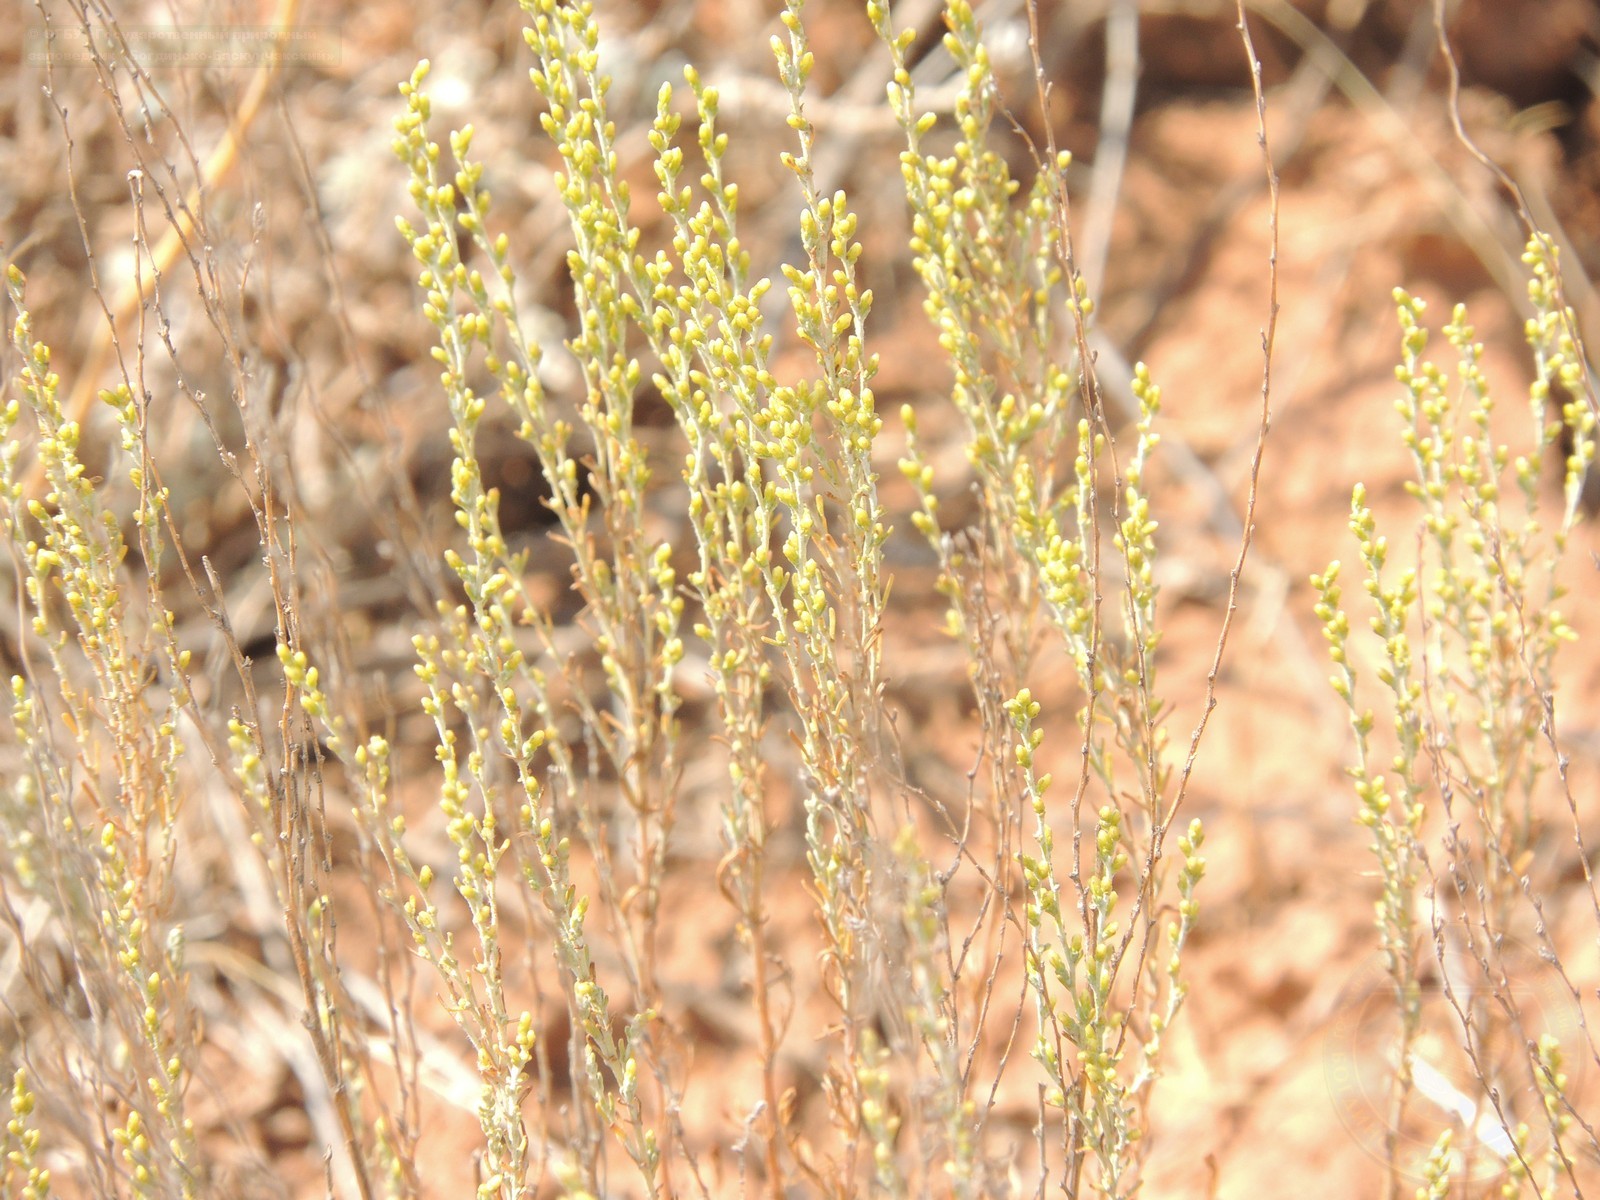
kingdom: Plantae
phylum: Tracheophyta
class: Magnoliopsida
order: Asterales
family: Asteraceae
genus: Artemisia
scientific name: Artemisia pauciflora
